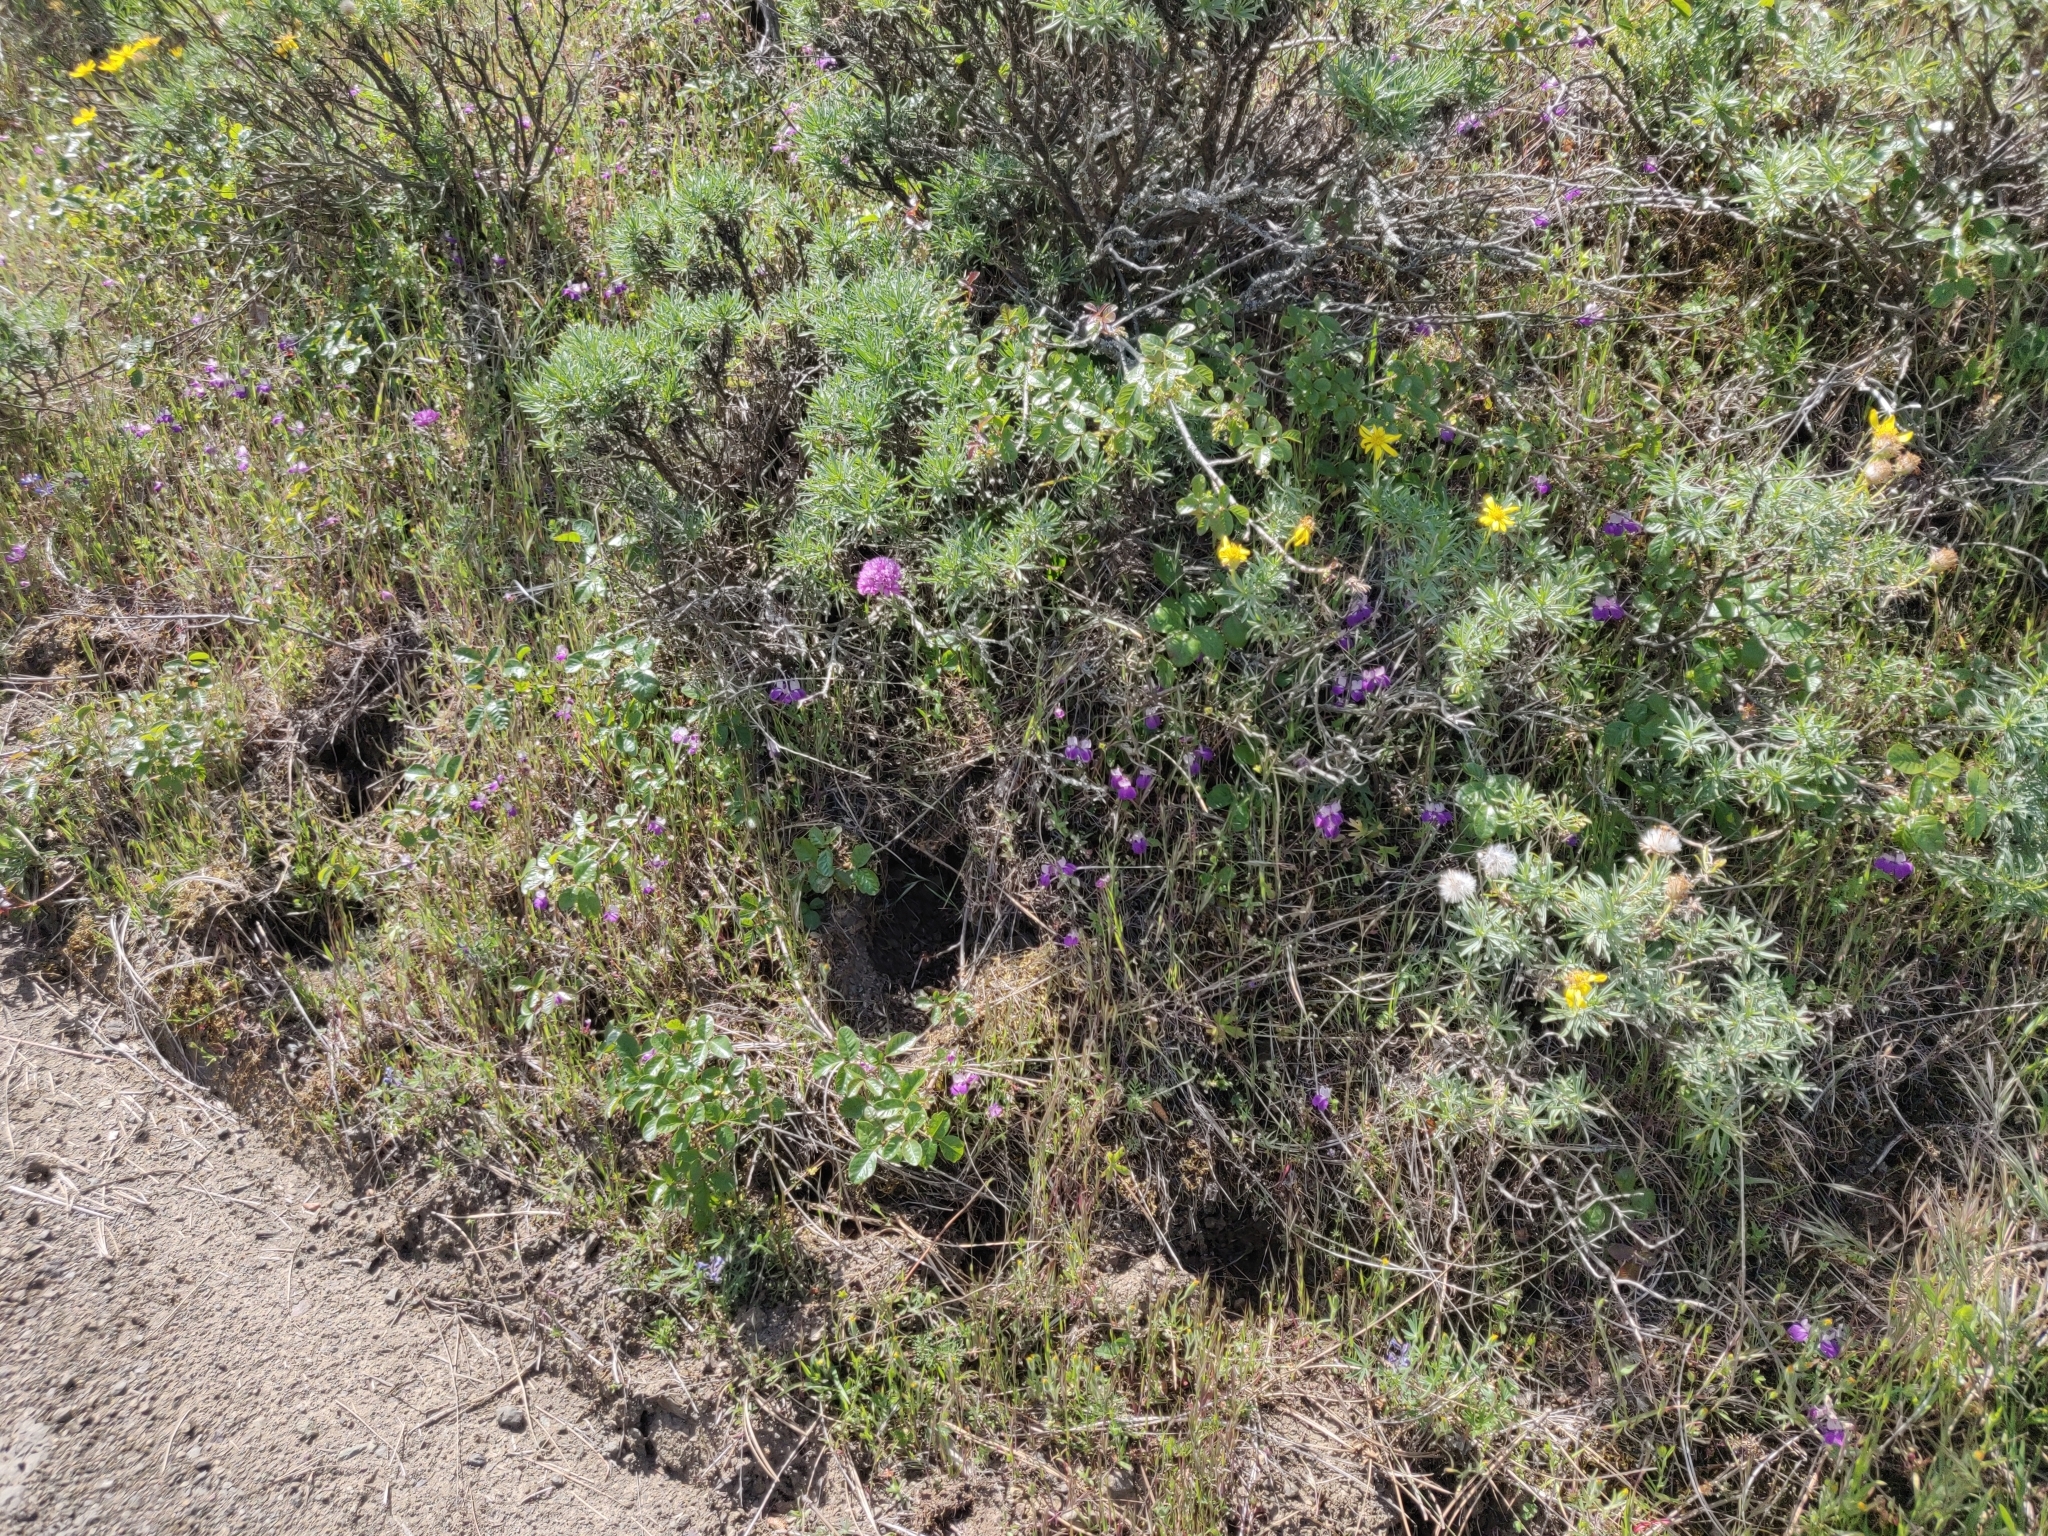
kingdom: Plantae
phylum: Tracheophyta
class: Magnoliopsida
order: Lamiales
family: Plantaginaceae
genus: Collinsia
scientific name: Collinsia heterophylla
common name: Chinese-houses
